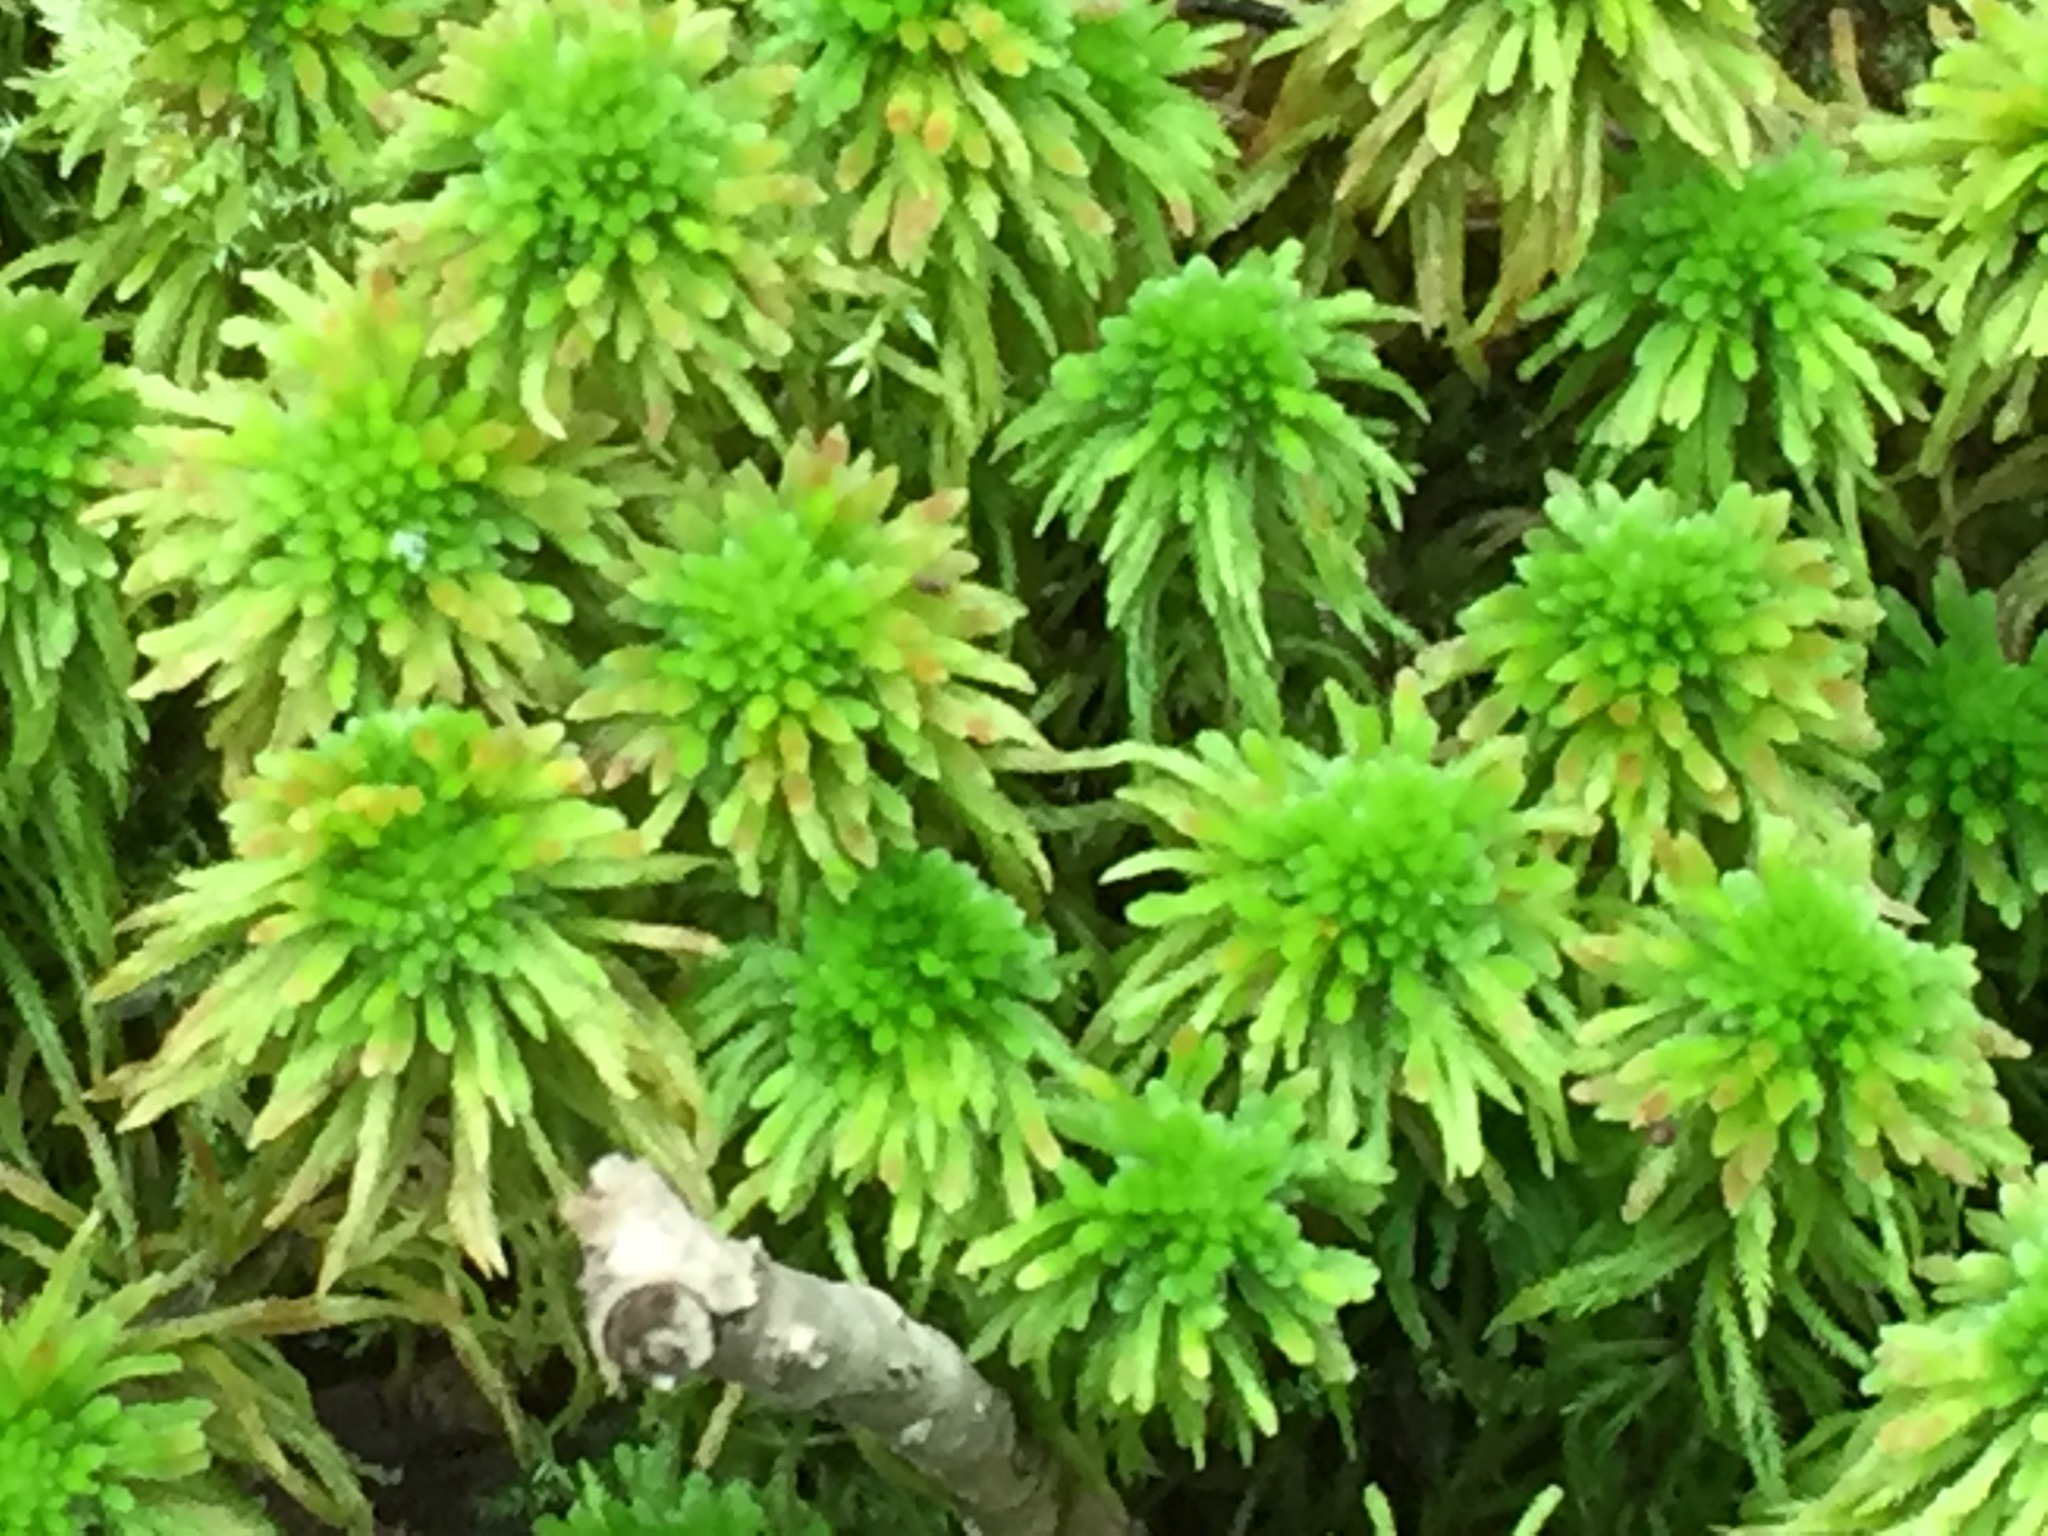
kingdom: Plantae
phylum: Bryophyta
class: Sphagnopsida
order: Sphagnales
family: Sphagnaceae
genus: Sphagnum
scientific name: Sphagnum wulfianum
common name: Wulf's peat moss
